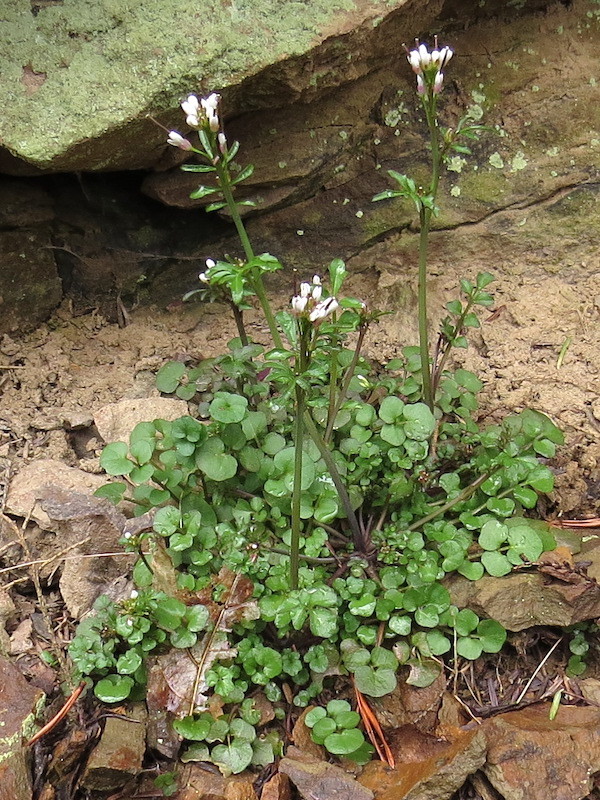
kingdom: Plantae
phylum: Tracheophyta
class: Magnoliopsida
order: Brassicales
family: Brassicaceae
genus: Cardamine
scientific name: Cardamine hirsuta
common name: Hairy bittercress
